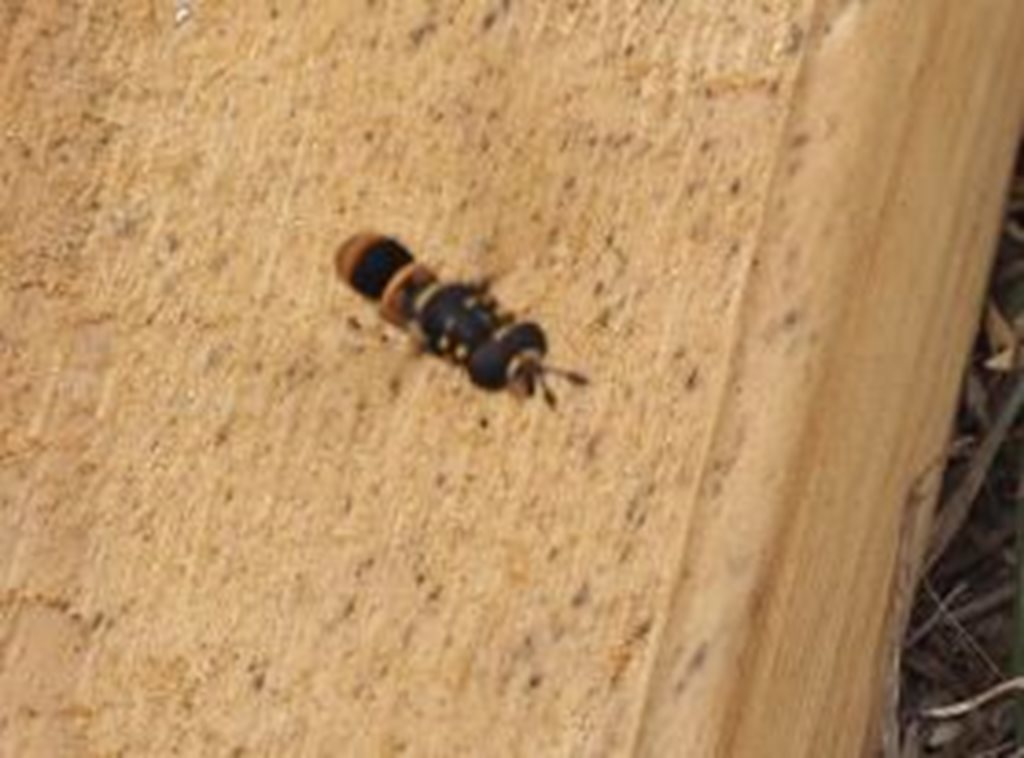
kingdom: Animalia
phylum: Arthropoda
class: Insecta
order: Diptera
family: Syrphidae
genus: Ceriana
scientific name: Ceriana ornata
